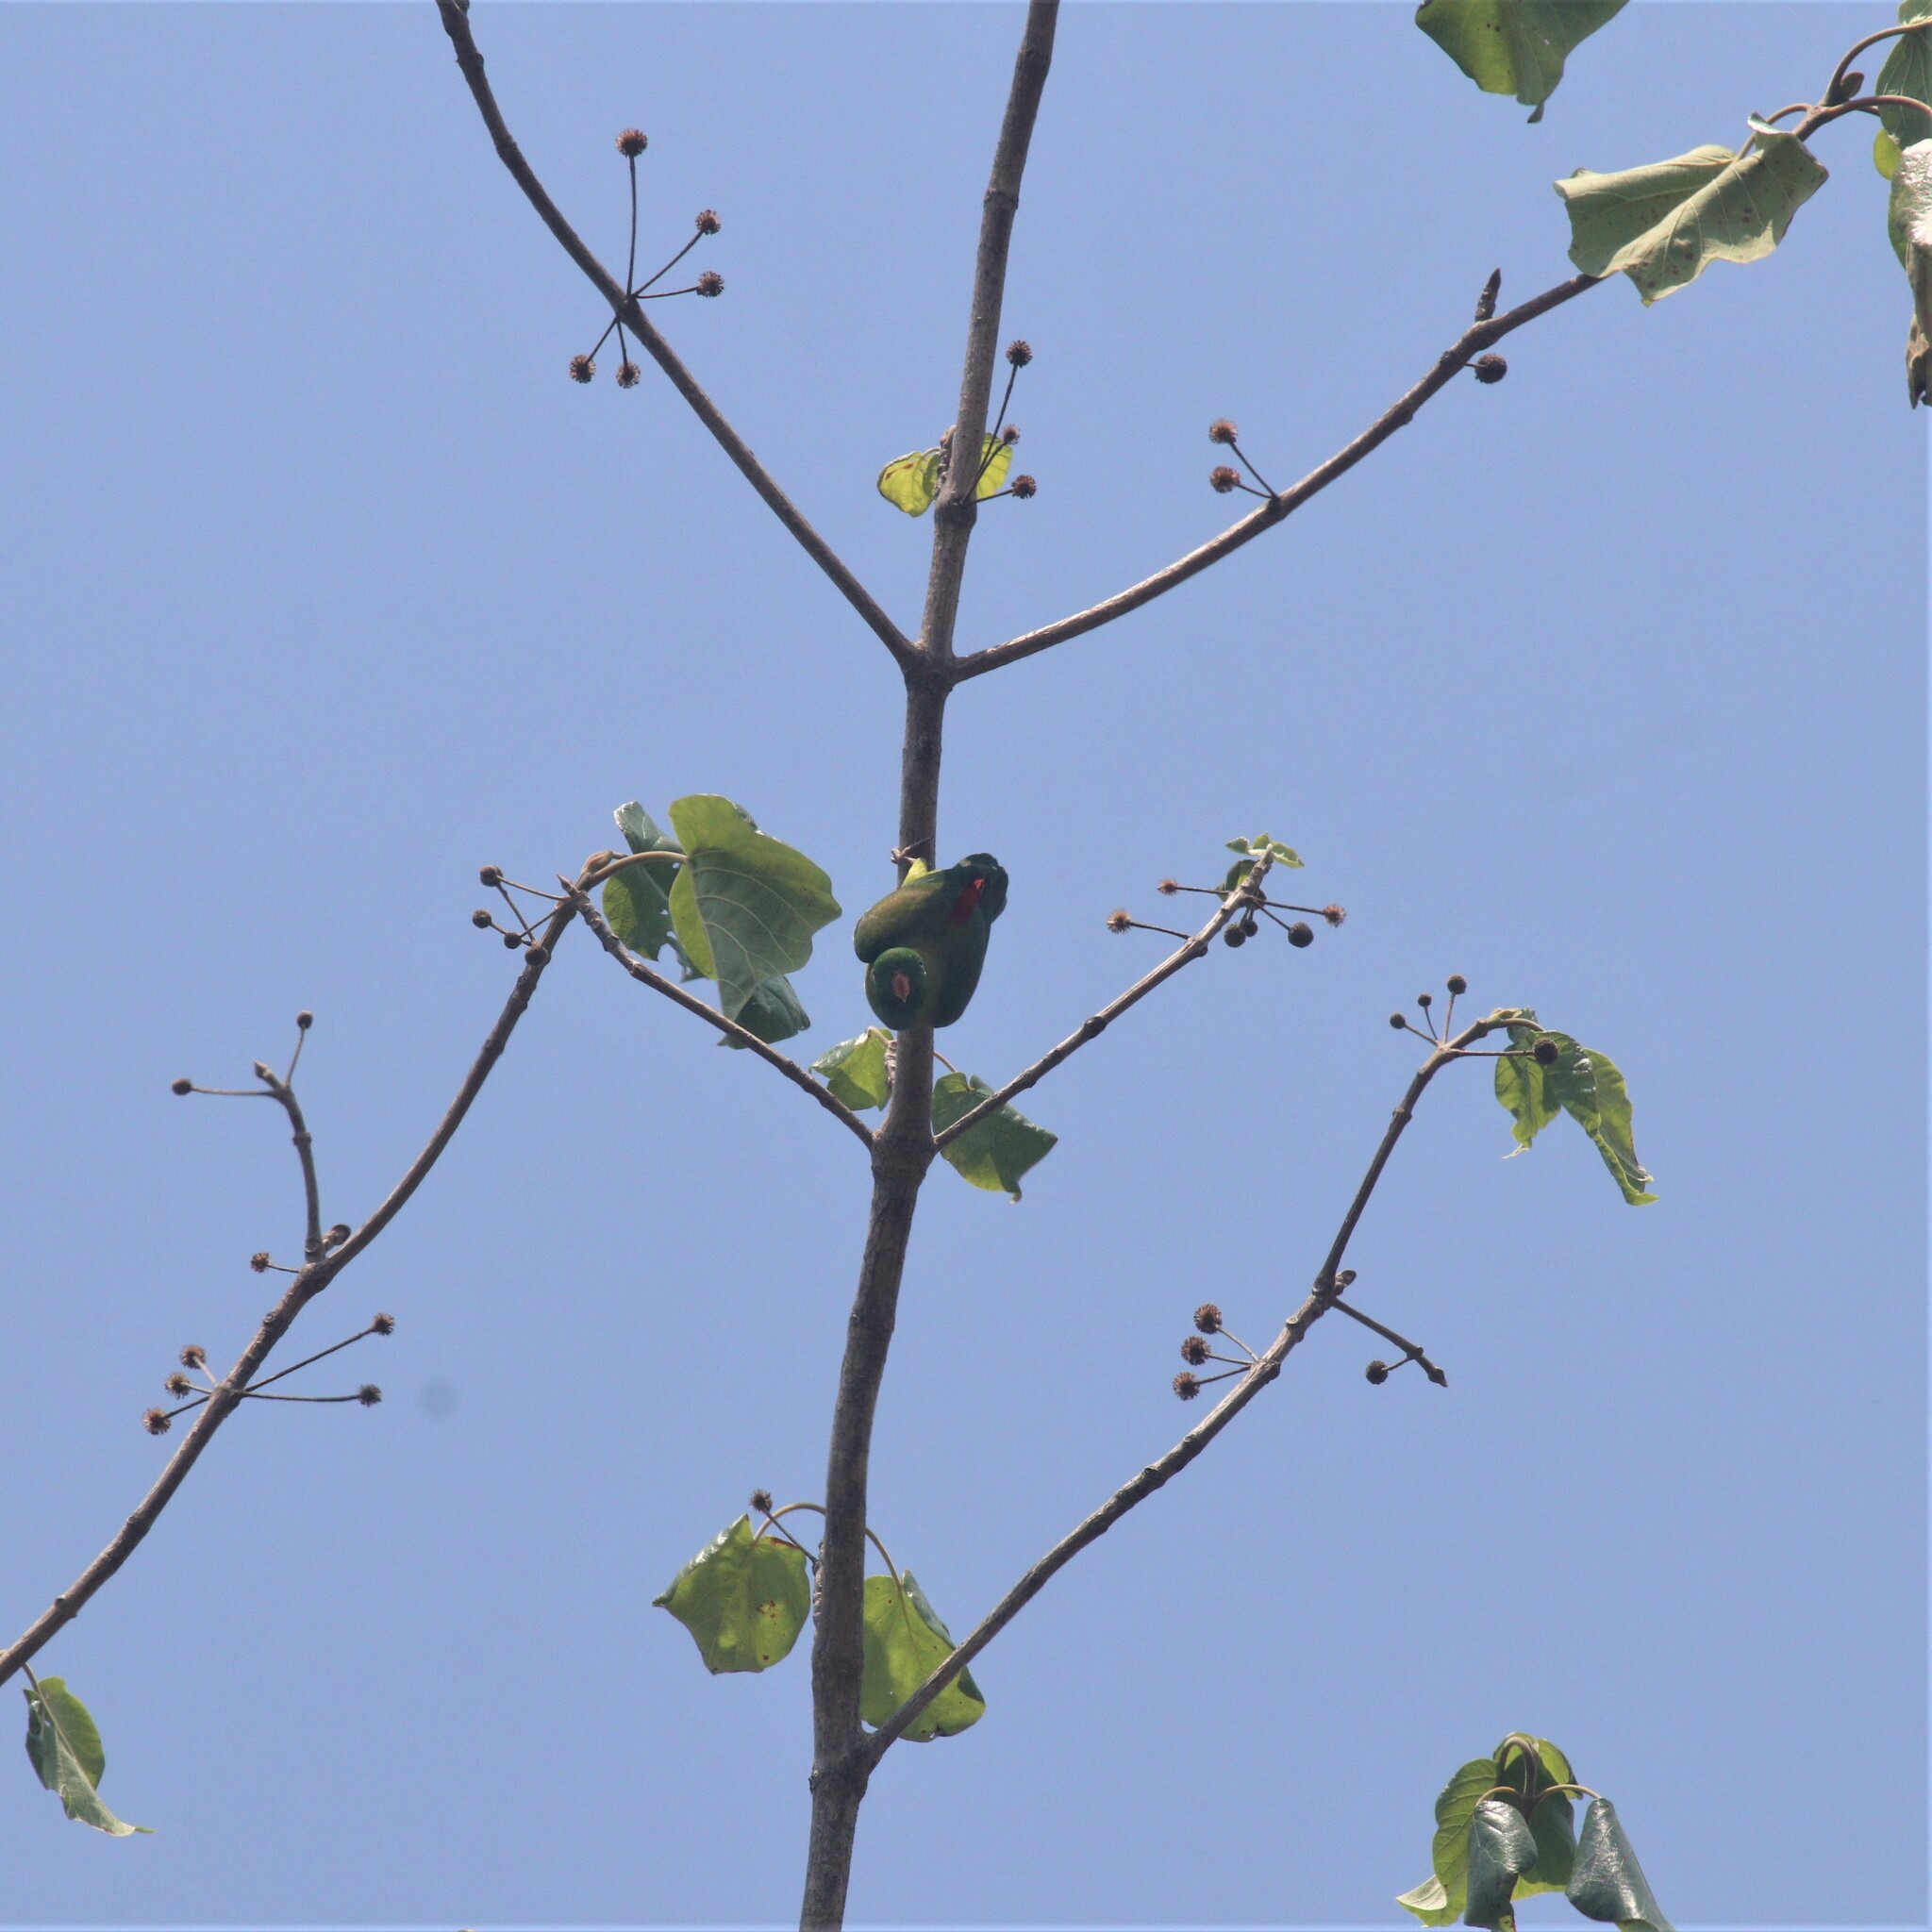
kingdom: Animalia
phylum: Chordata
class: Aves
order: Psittaciformes
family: Psittacidae
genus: Loriculus
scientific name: Loriculus vernalis
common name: Vernal hanging parrot
